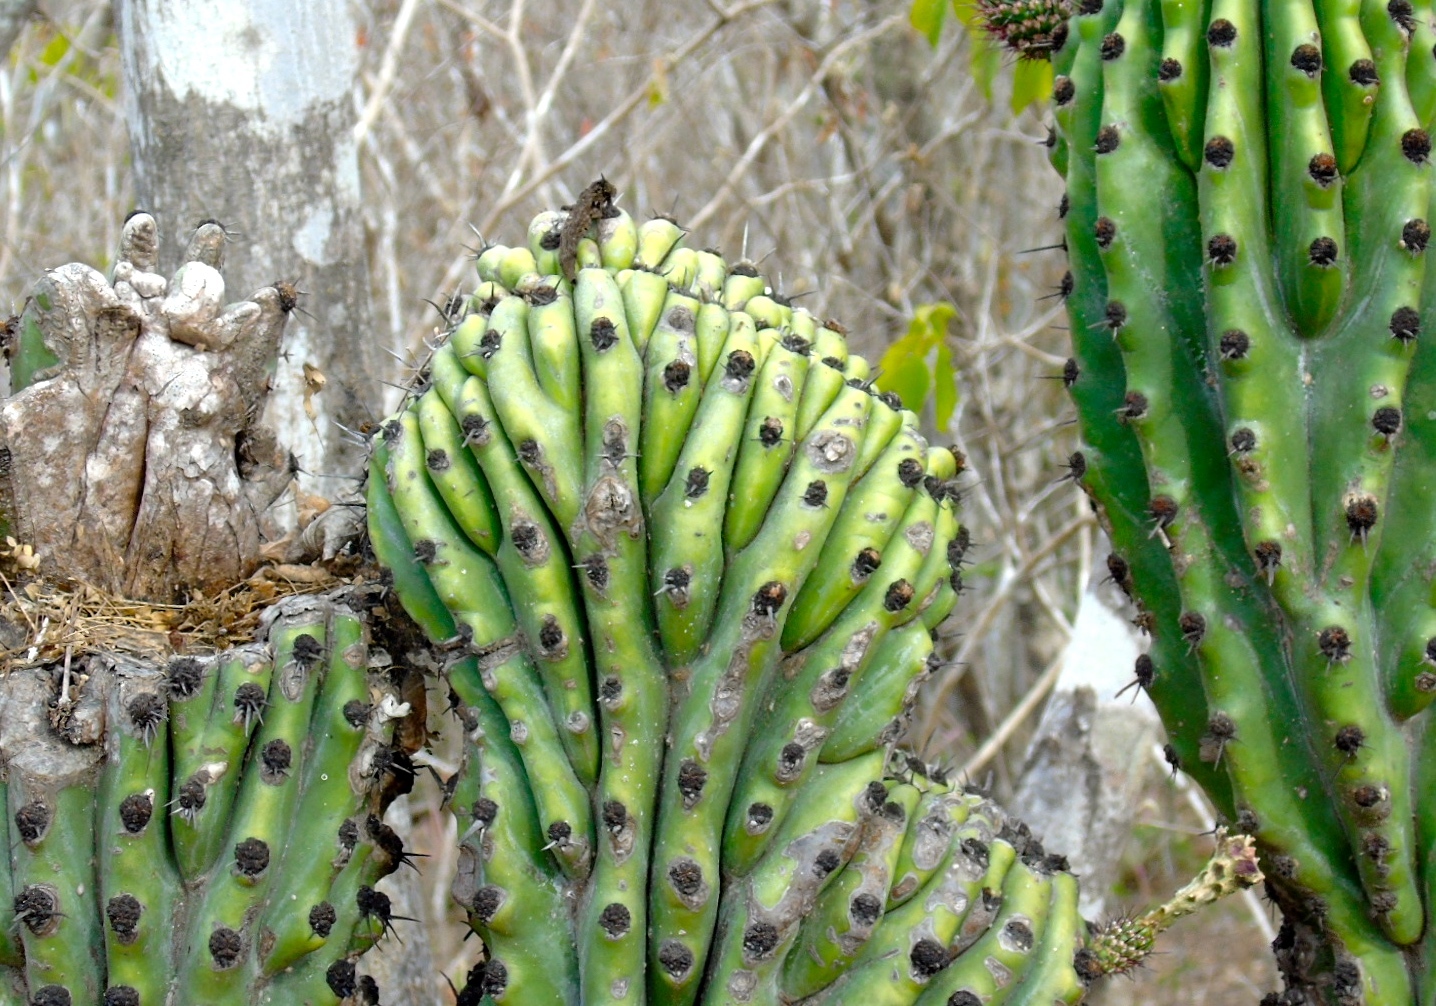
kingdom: Plantae
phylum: Tracheophyta
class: Magnoliopsida
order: Caryophyllales
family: Cactaceae
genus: Stenocereus
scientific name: Stenocereus martinezii
